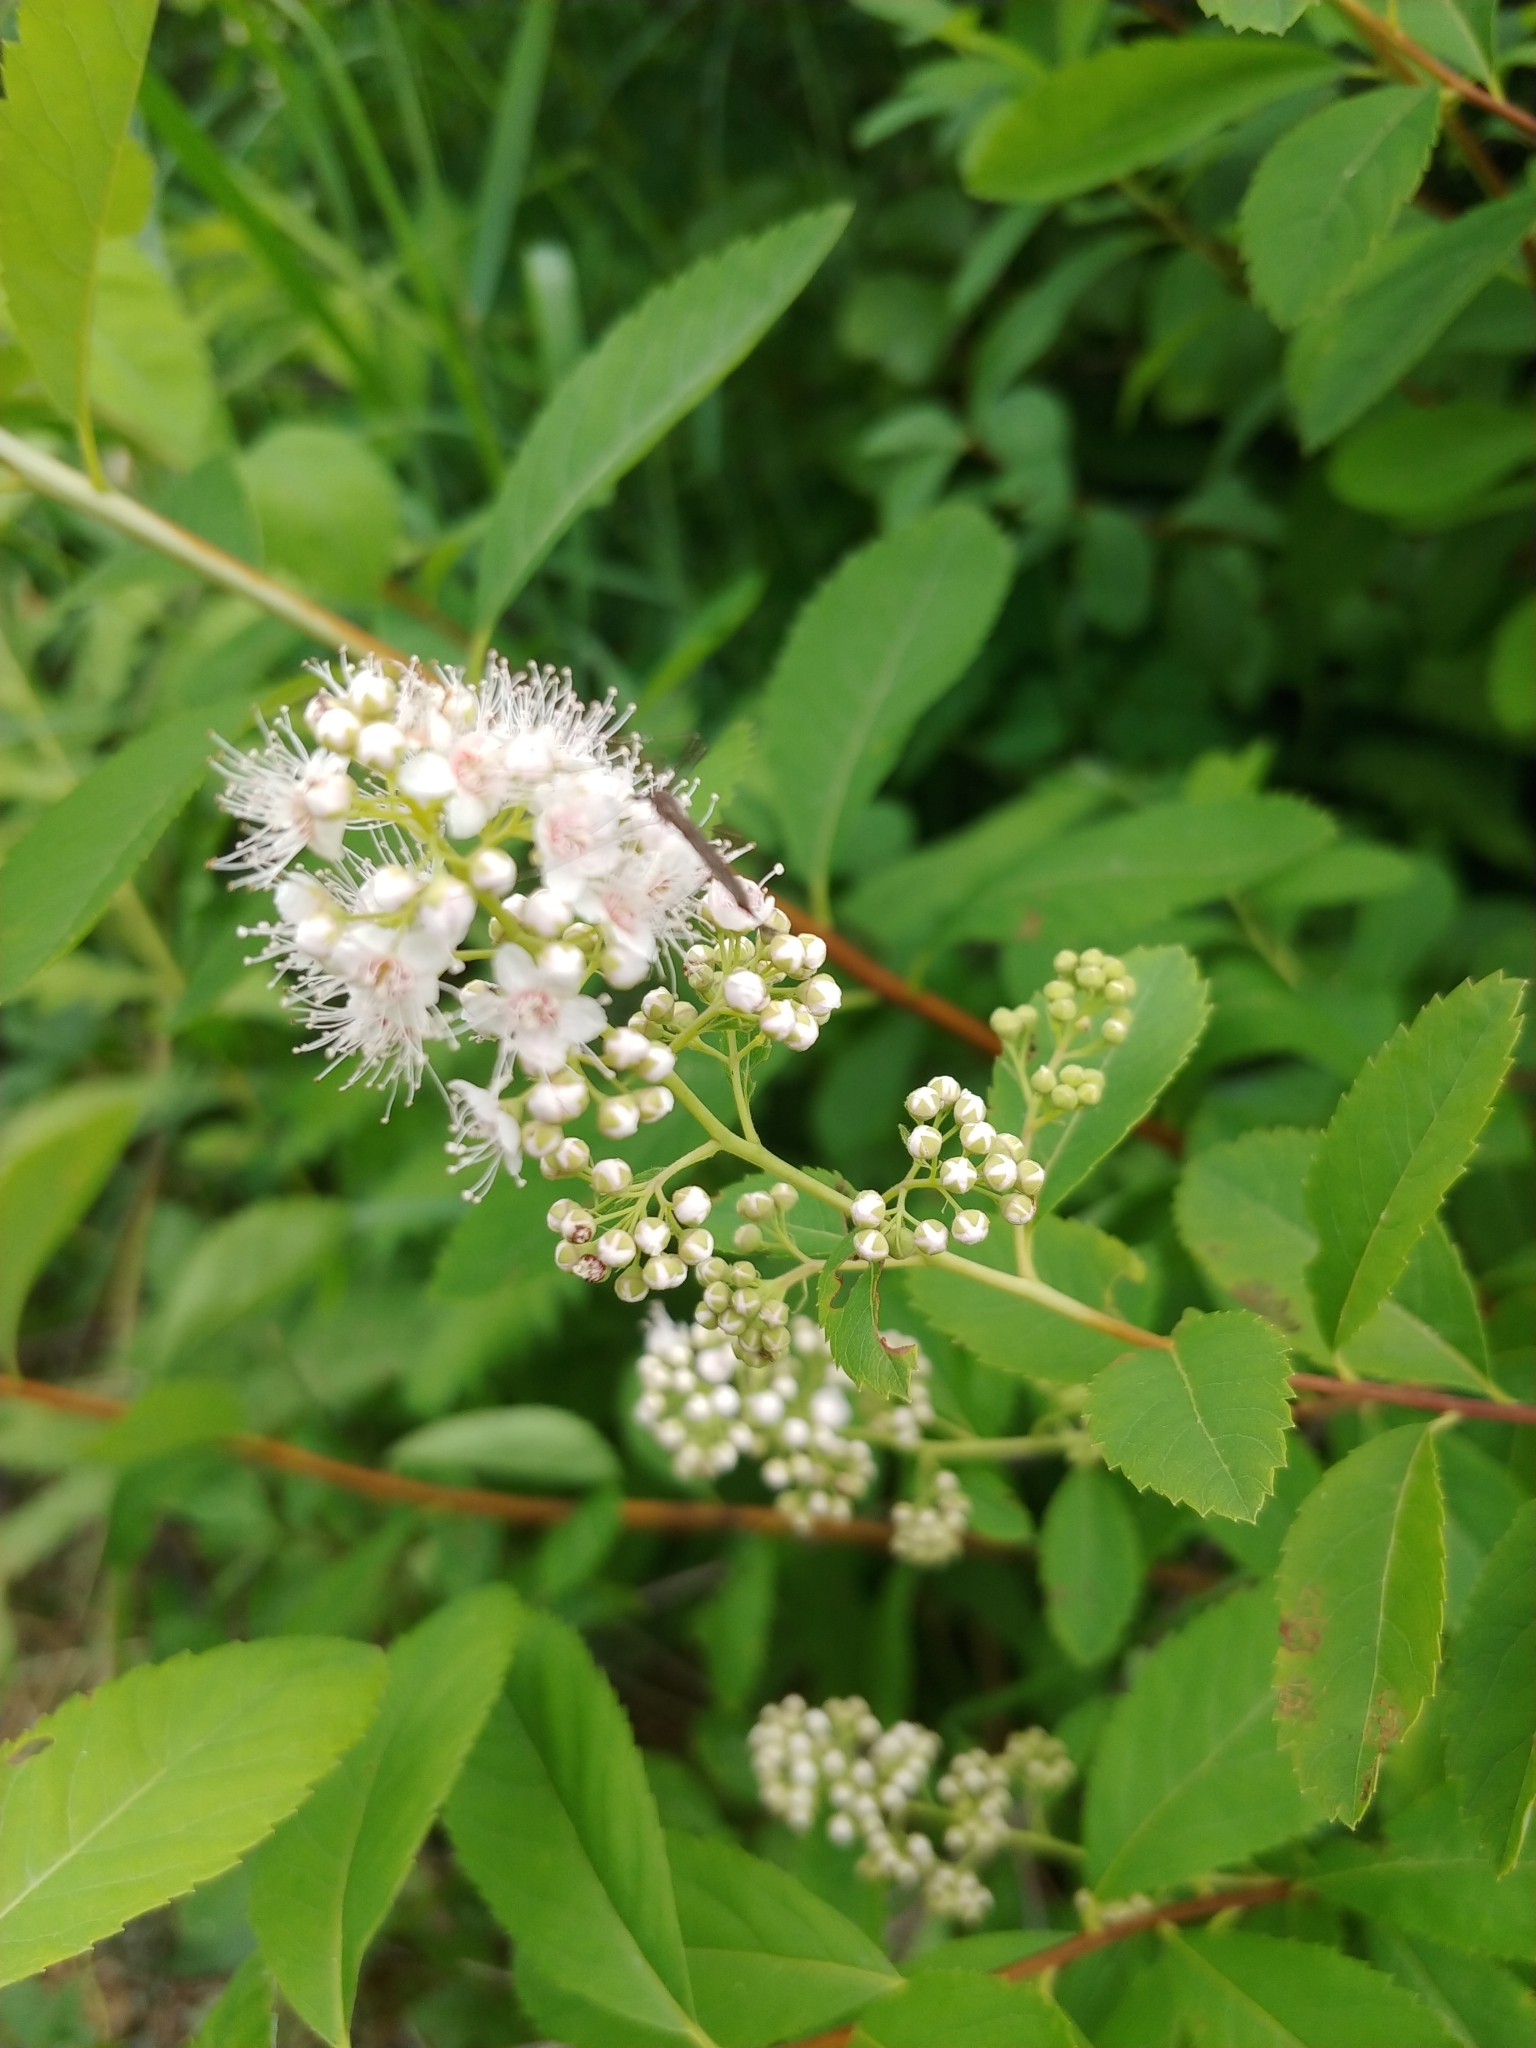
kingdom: Plantae
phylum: Tracheophyta
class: Magnoliopsida
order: Rosales
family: Rosaceae
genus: Spiraea
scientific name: Spiraea alba
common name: Pale bridewort
